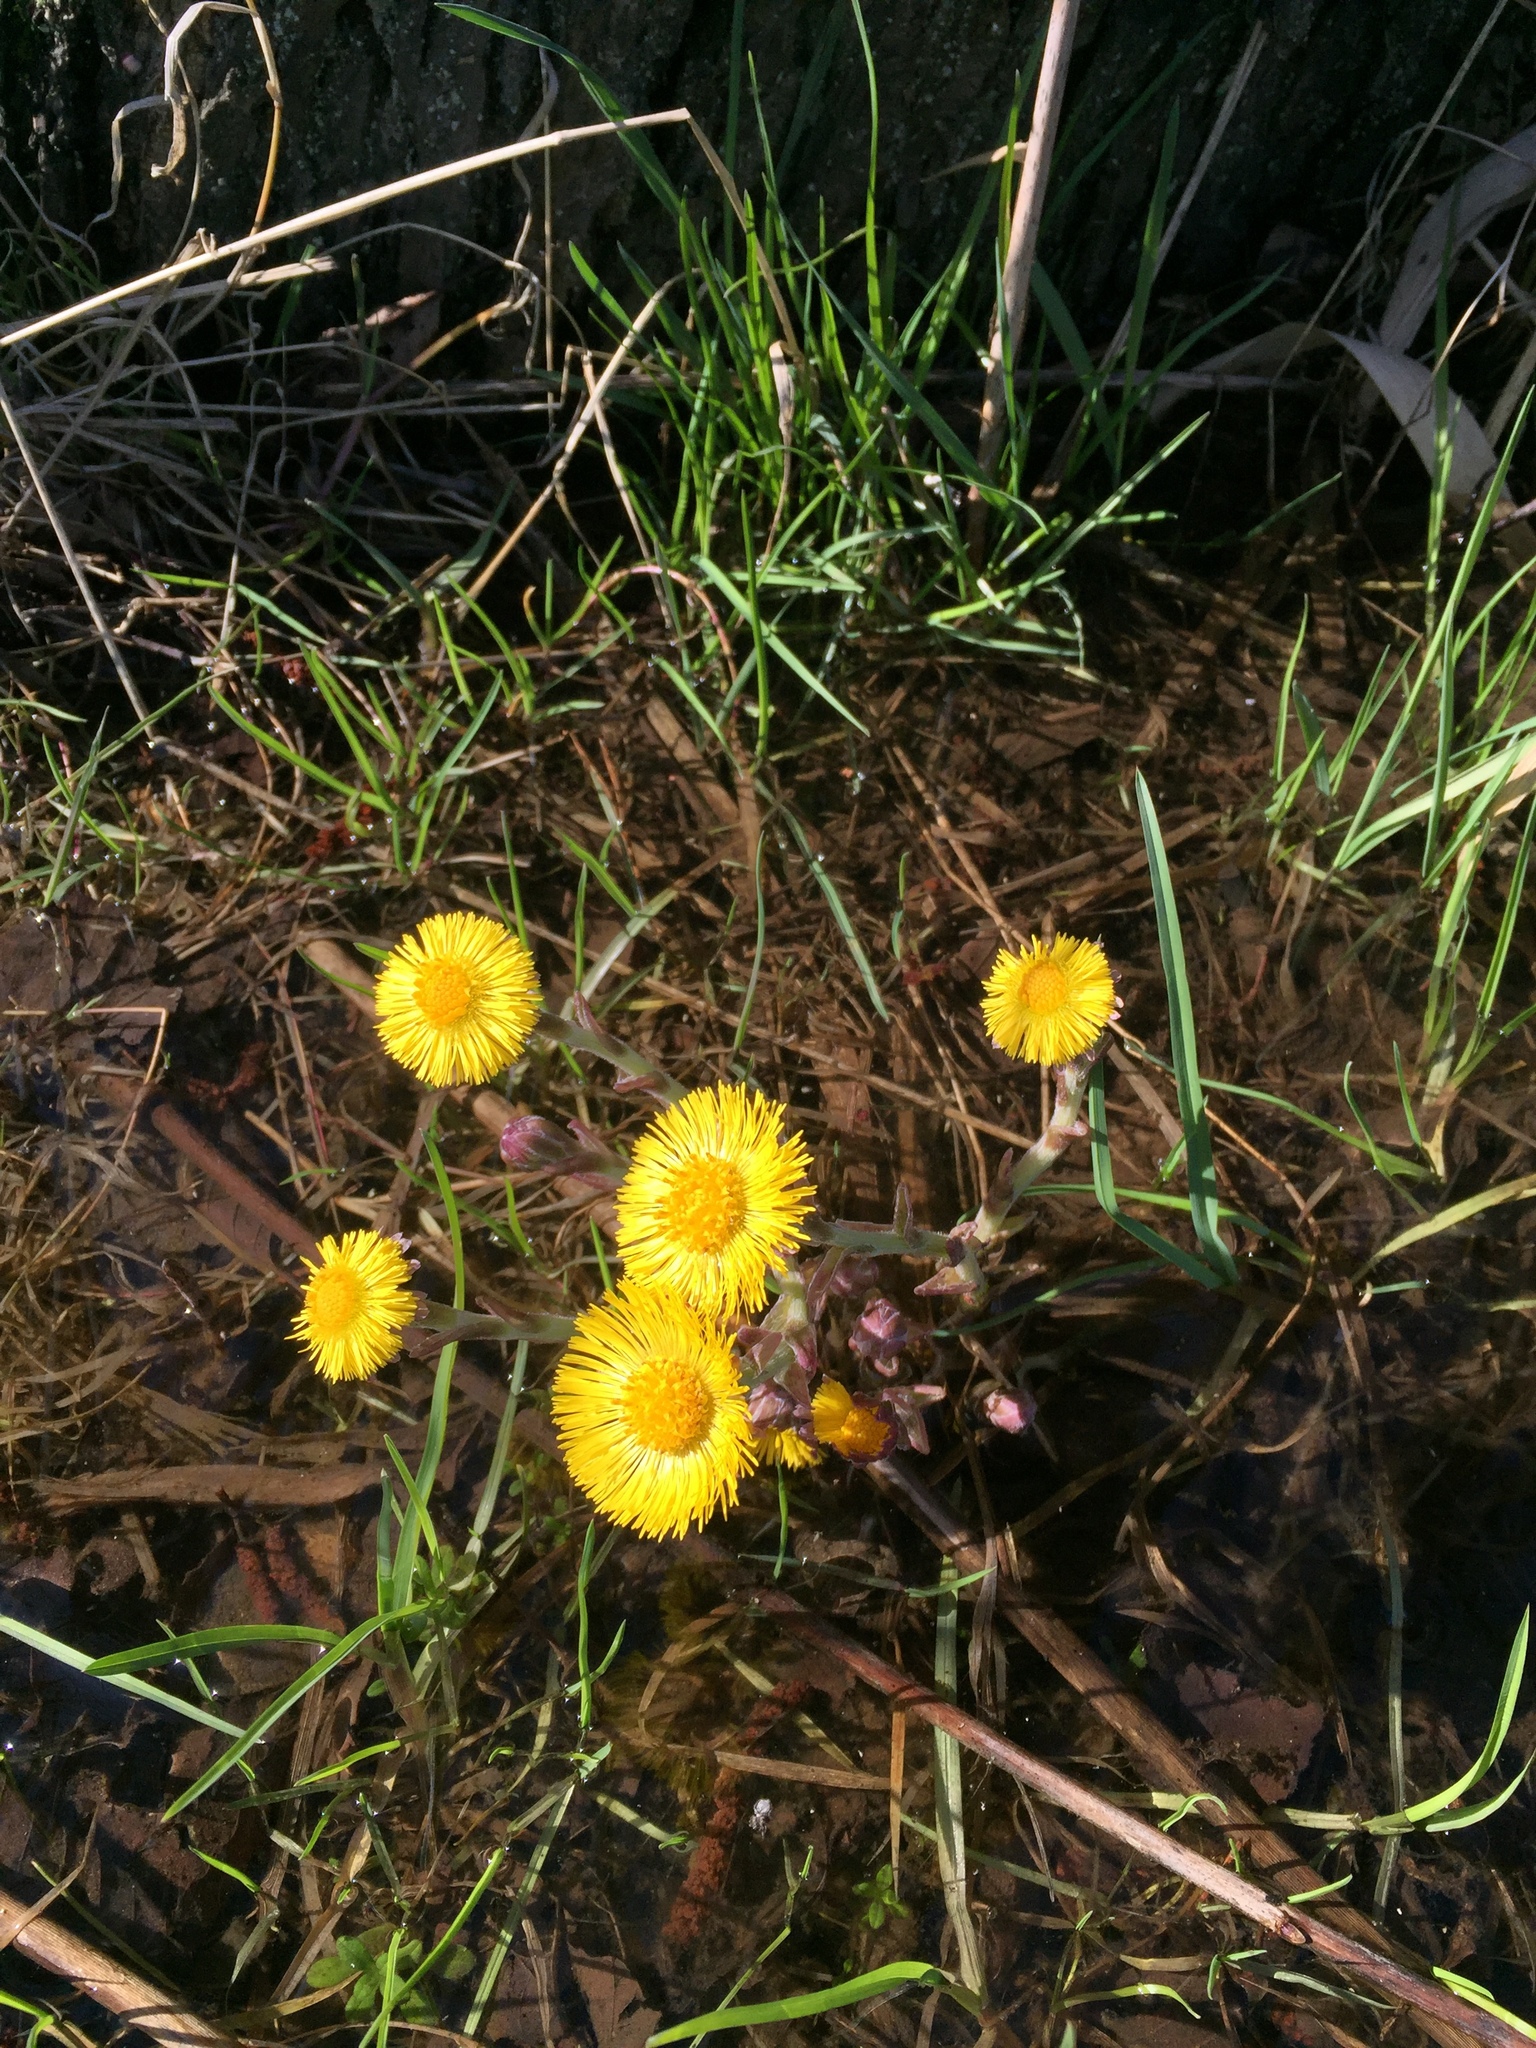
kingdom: Plantae
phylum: Tracheophyta
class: Magnoliopsida
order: Asterales
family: Asteraceae
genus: Tussilago
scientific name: Tussilago farfara
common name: Coltsfoot
